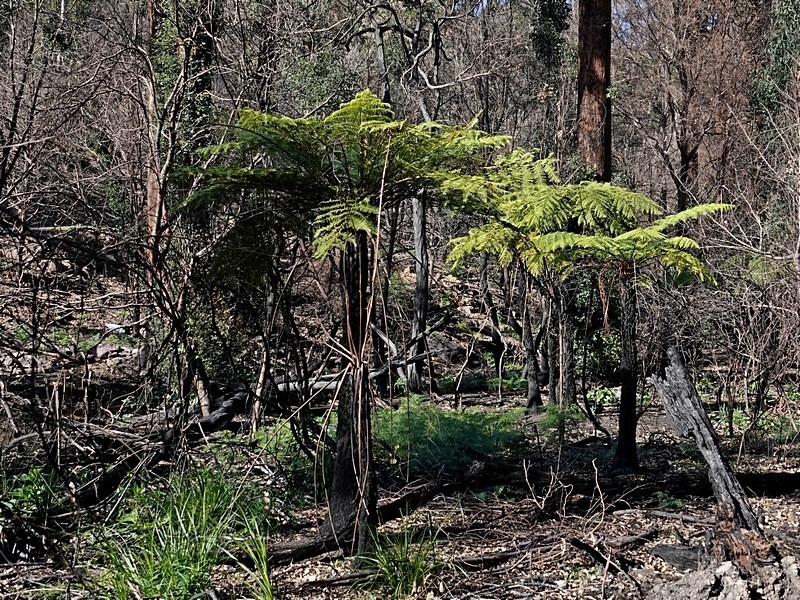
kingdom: Plantae
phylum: Tracheophyta
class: Polypodiopsida
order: Cyatheales
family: Cyatheaceae
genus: Alsophila
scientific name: Alsophila australis
